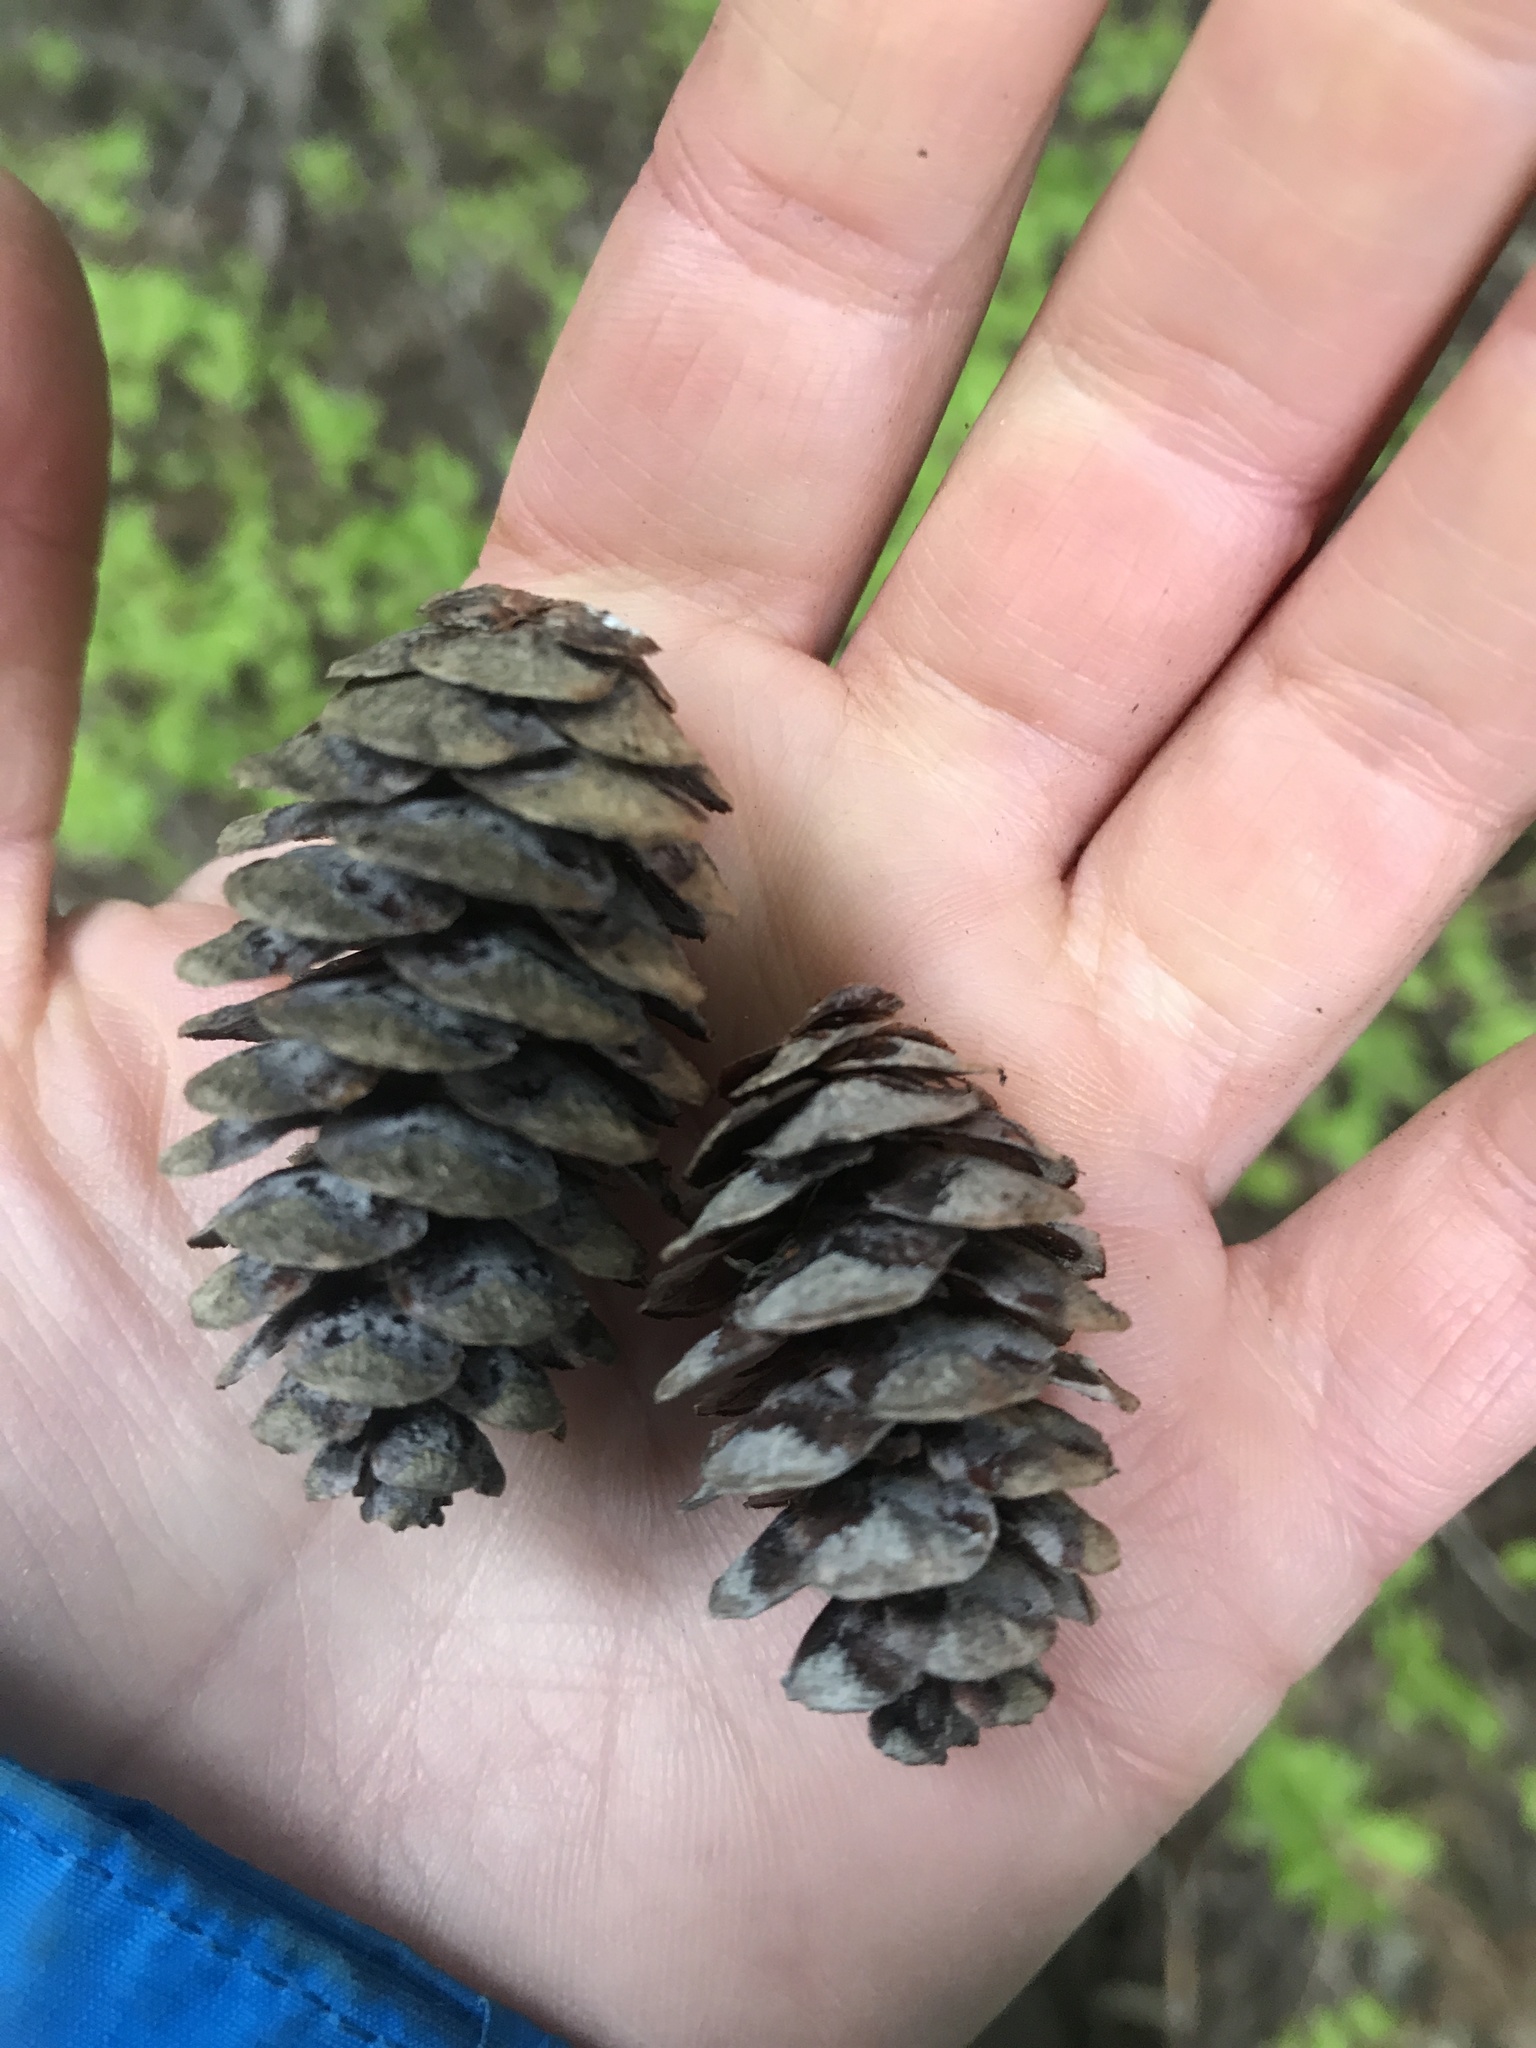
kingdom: Plantae
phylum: Tracheophyta
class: Pinopsida
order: Pinales
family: Pinaceae
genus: Tsuga
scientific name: Tsuga mertensiana
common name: Mountain hemlock
